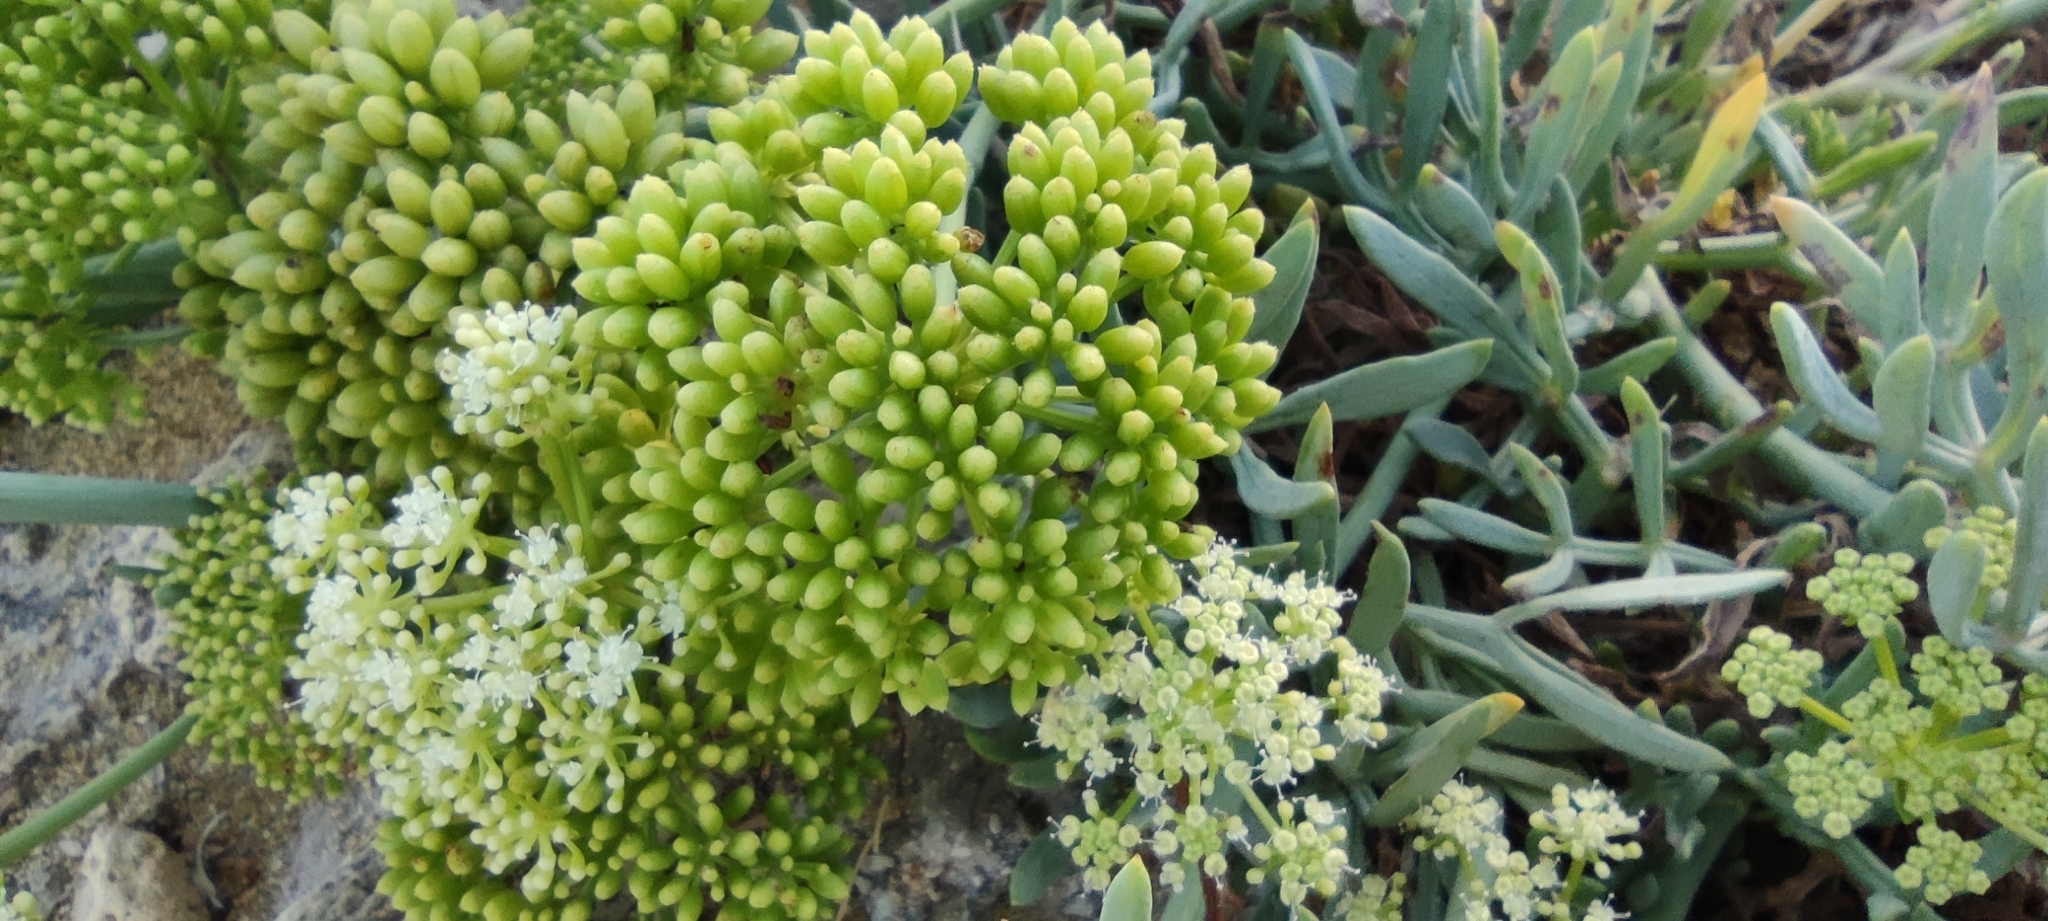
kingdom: Plantae
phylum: Tracheophyta
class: Magnoliopsida
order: Apiales
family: Apiaceae
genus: Crithmum
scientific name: Crithmum maritimum
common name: Rock samphire
